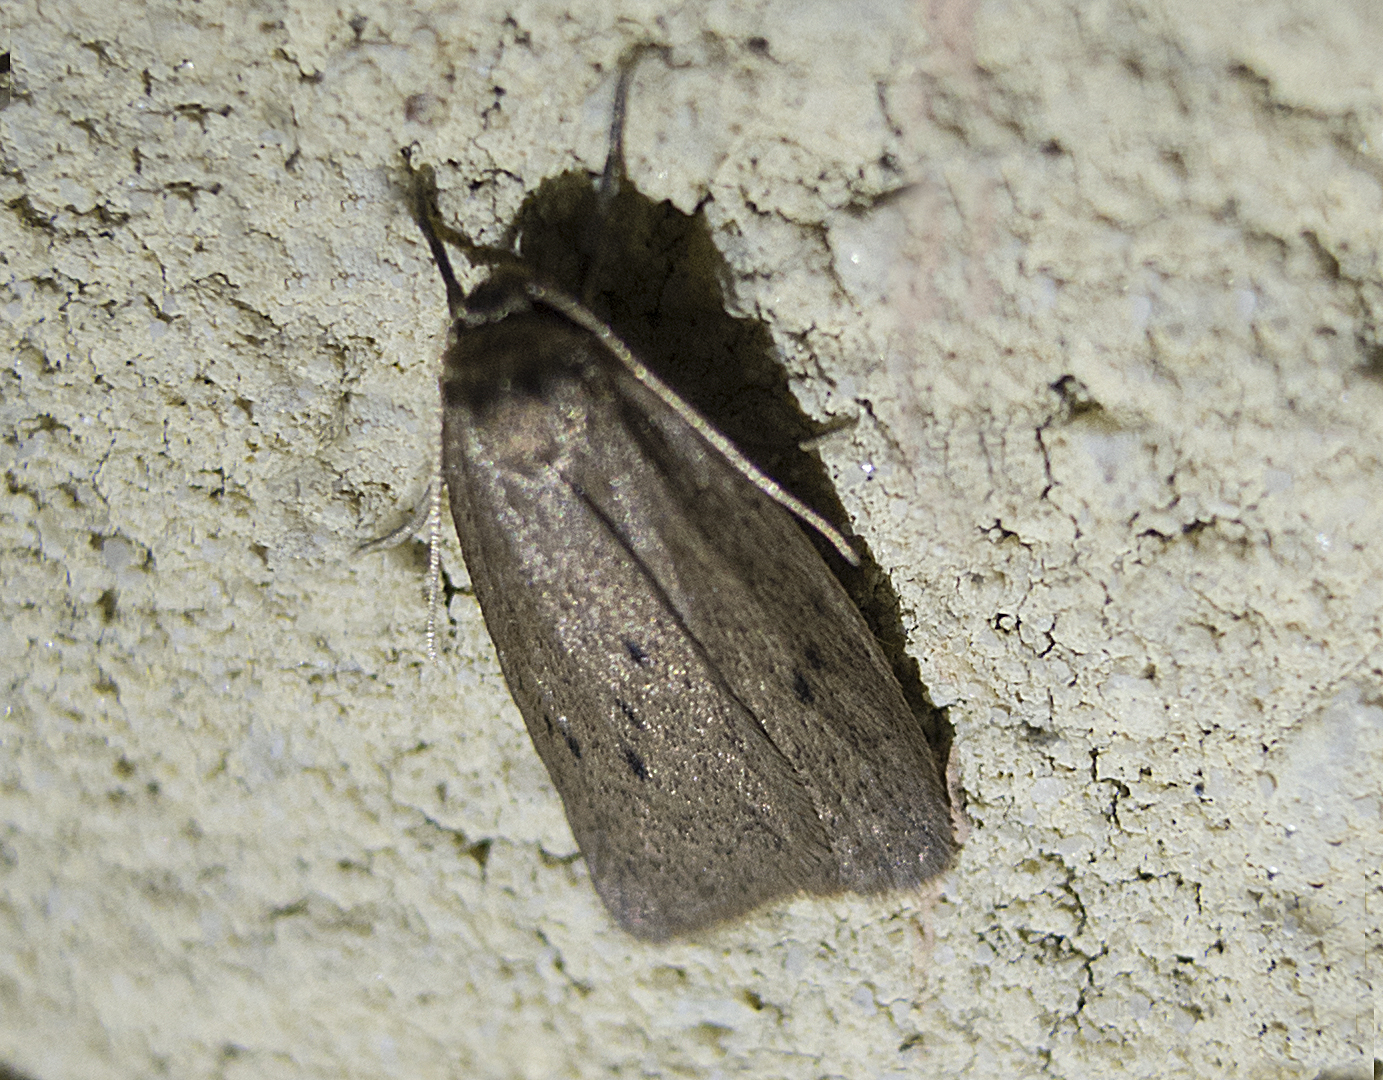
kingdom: Animalia
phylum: Arthropoda
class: Insecta
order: Lepidoptera
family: Erebidae
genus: Pelosia
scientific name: Pelosia obtusa
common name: Small dotted footman
